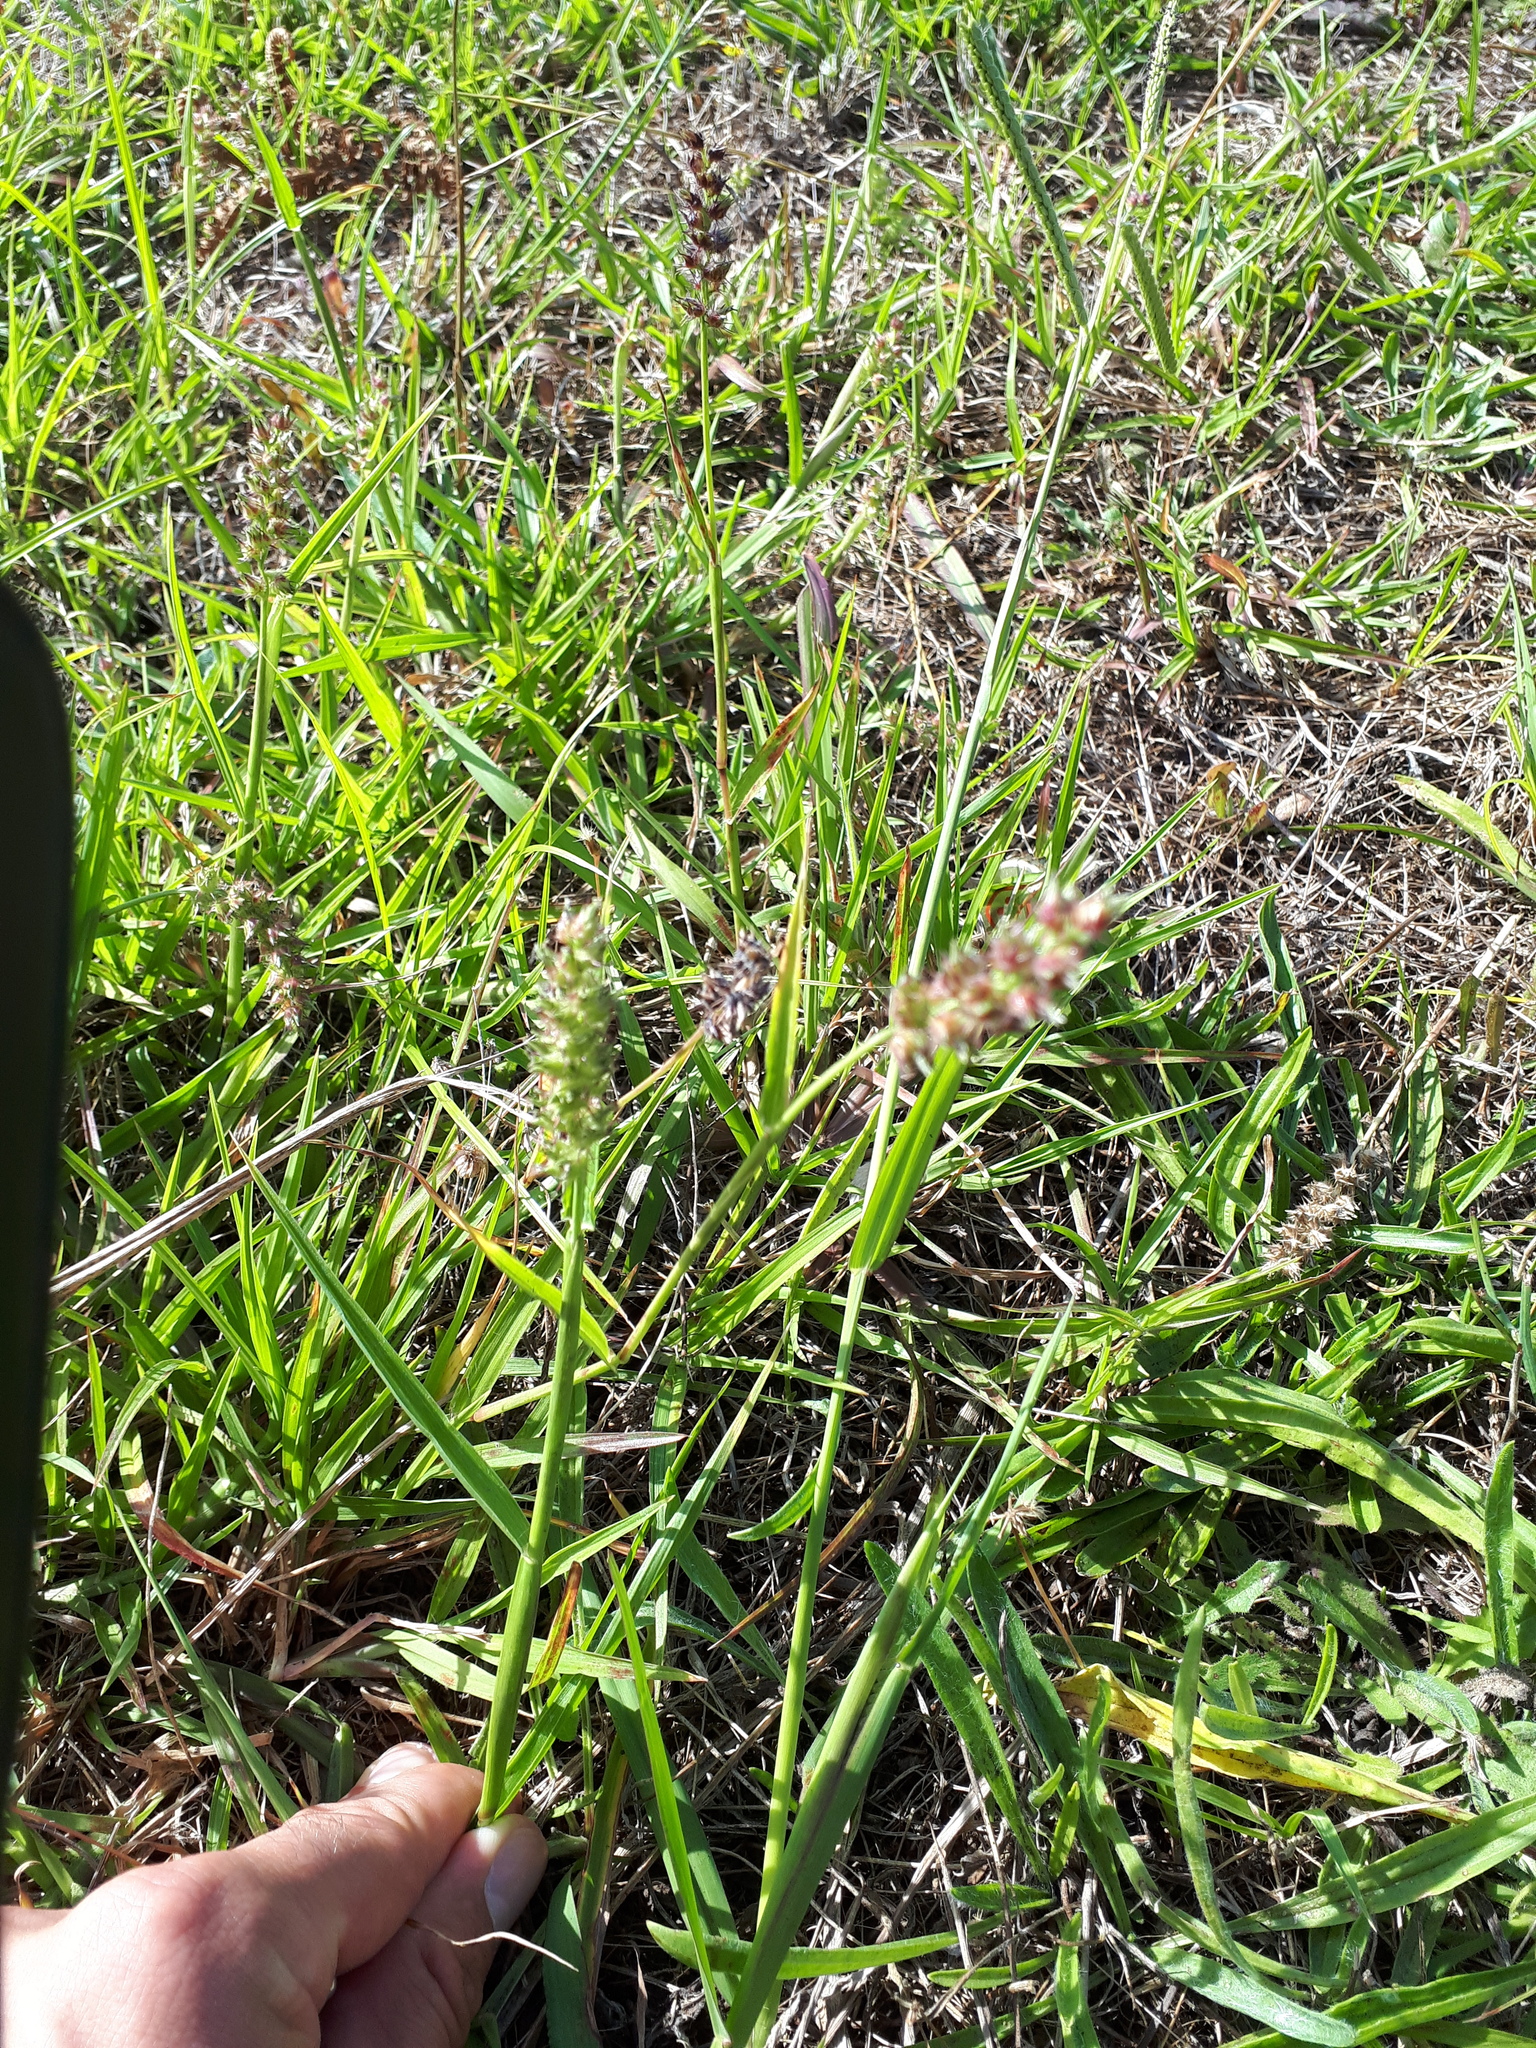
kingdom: Plantae
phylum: Tracheophyta
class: Liliopsida
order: Poales
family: Poaceae
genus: Cenchrus
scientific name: Cenchrus echinatus
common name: Southern sandbur
